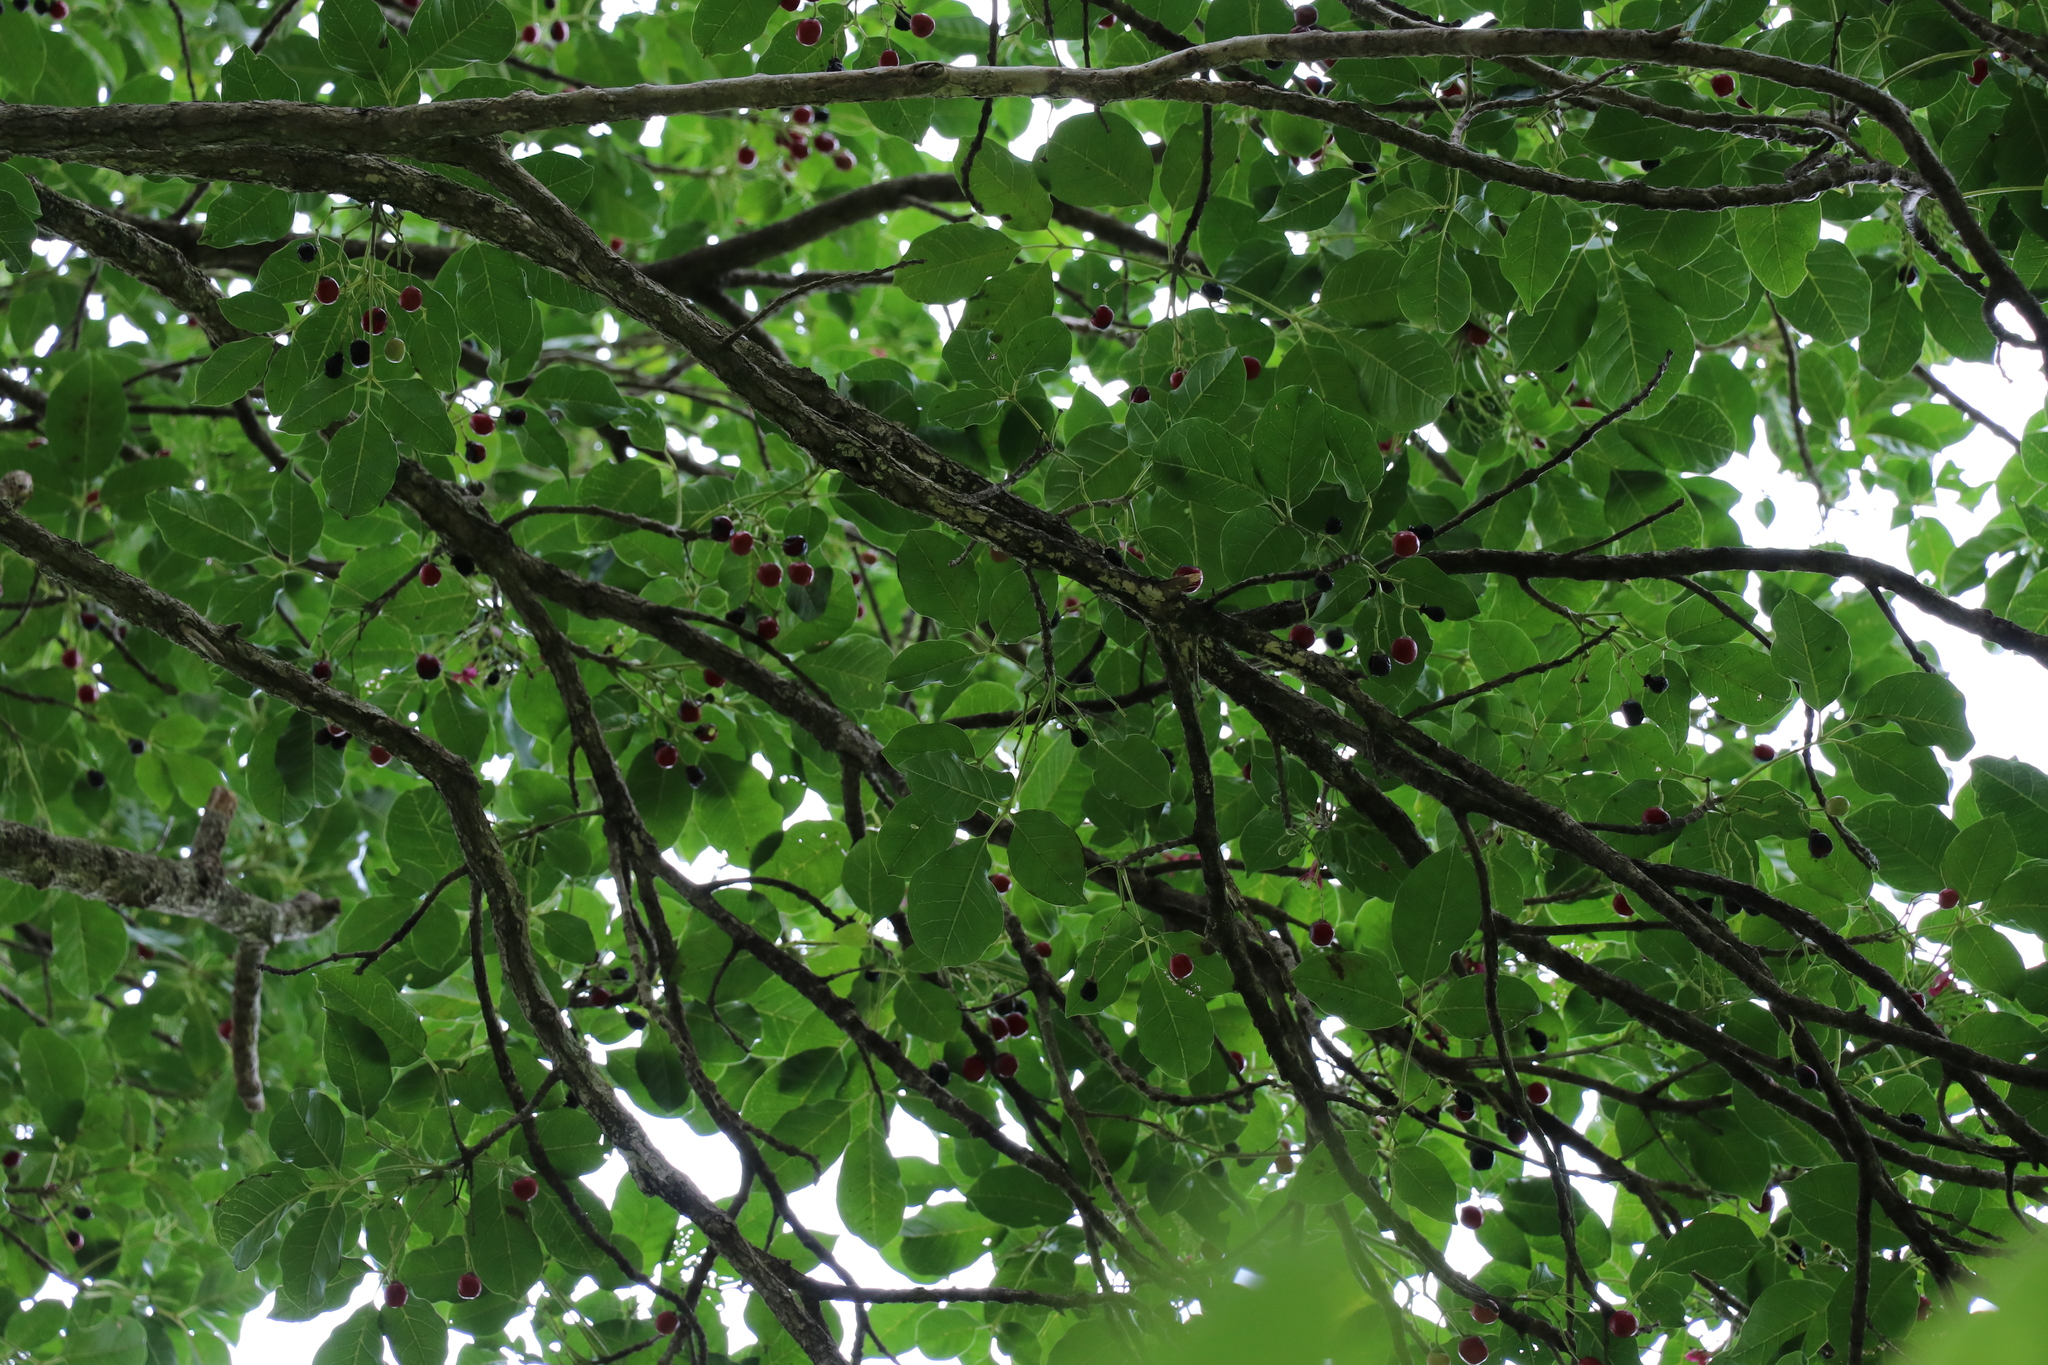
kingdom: Plantae
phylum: Tracheophyta
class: Magnoliopsida
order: Lamiales
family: Lamiaceae
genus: Vitex
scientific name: Vitex lucens
